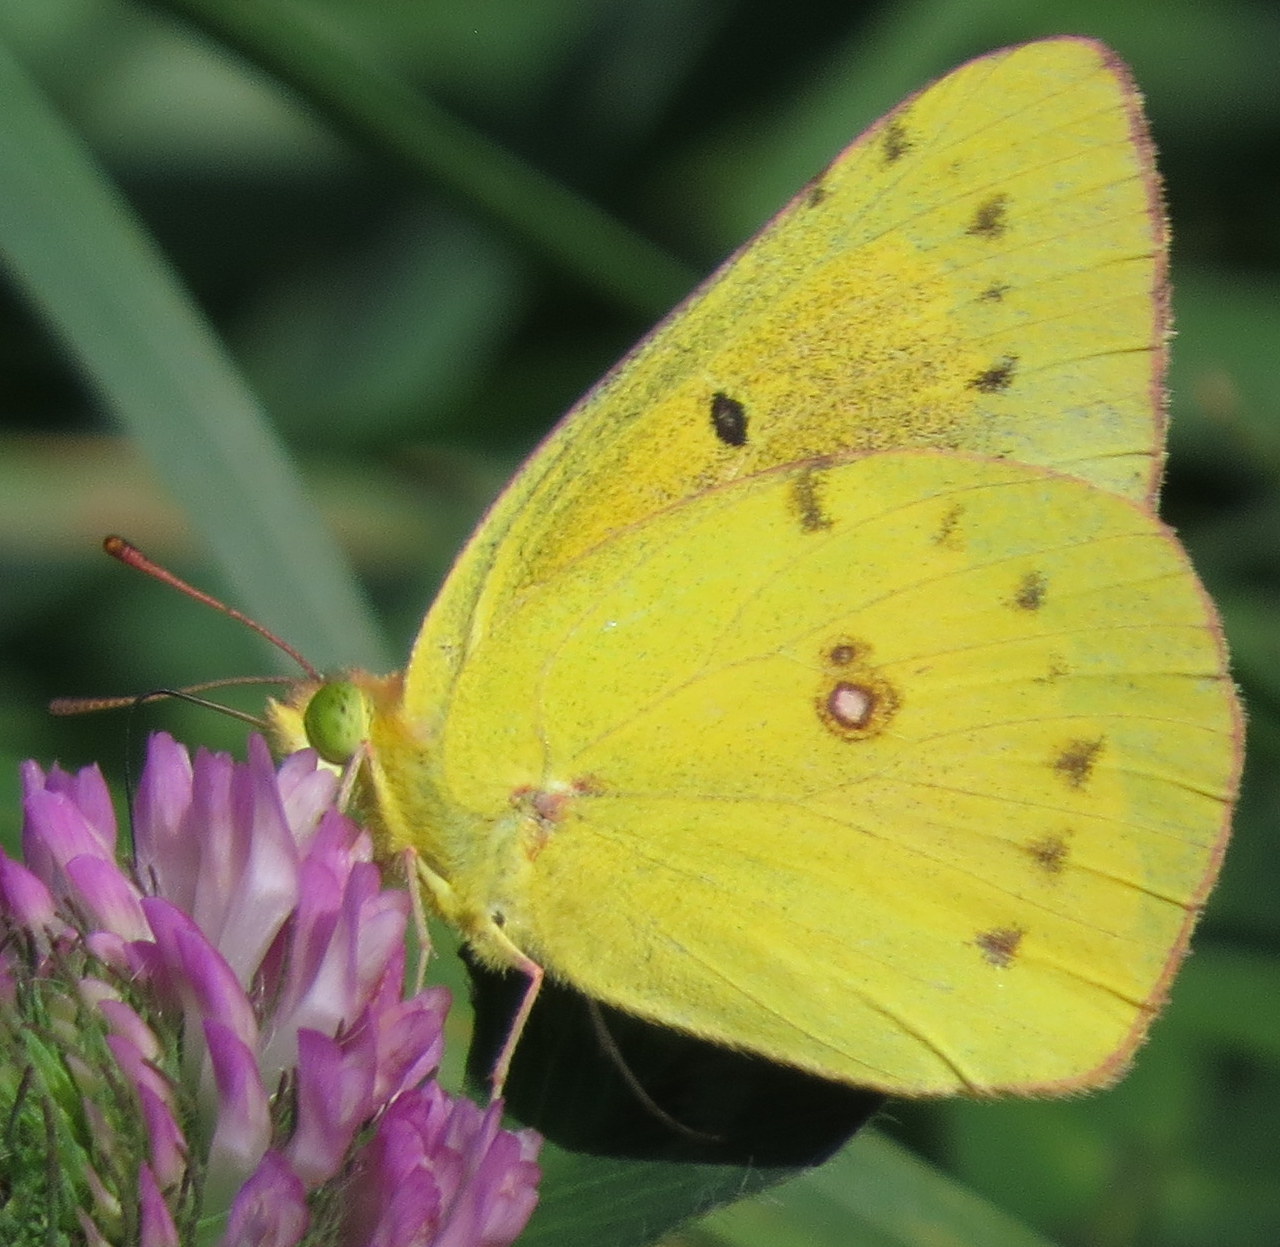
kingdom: Animalia
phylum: Arthropoda
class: Insecta
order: Lepidoptera
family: Pieridae
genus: Colias
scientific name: Colias eurytheme
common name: Alfalfa butterfly
